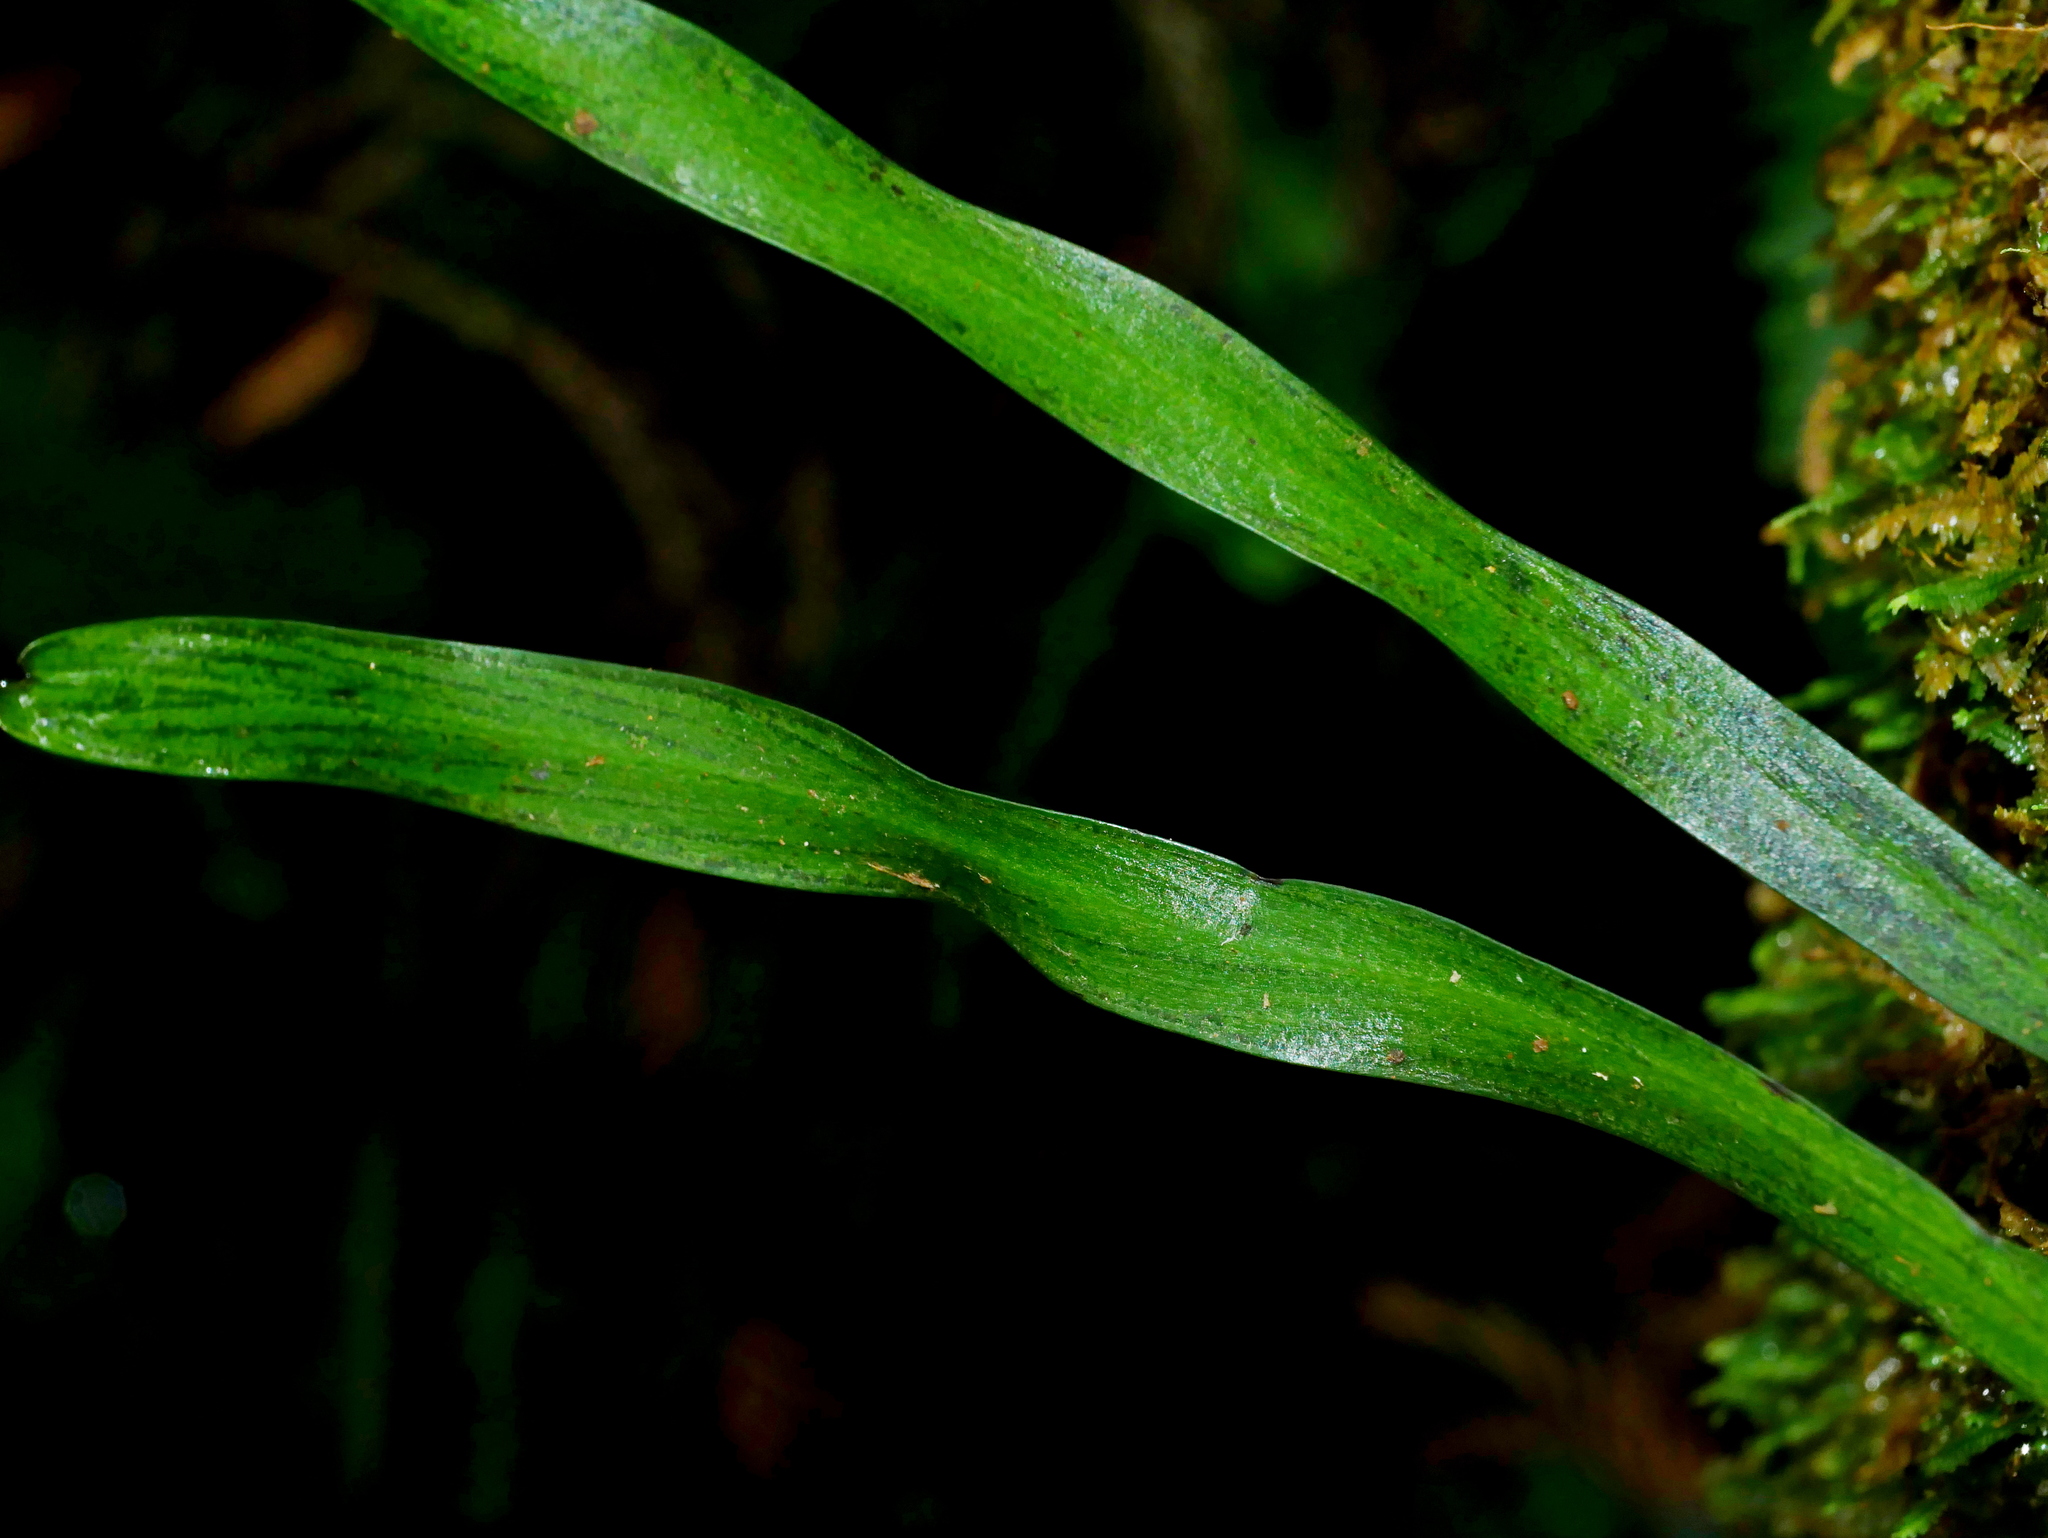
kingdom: Plantae
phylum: Tracheophyta
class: Polypodiopsida
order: Polypodiales
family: Pteridaceae
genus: Haplopteris
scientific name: Haplopteris elongata
